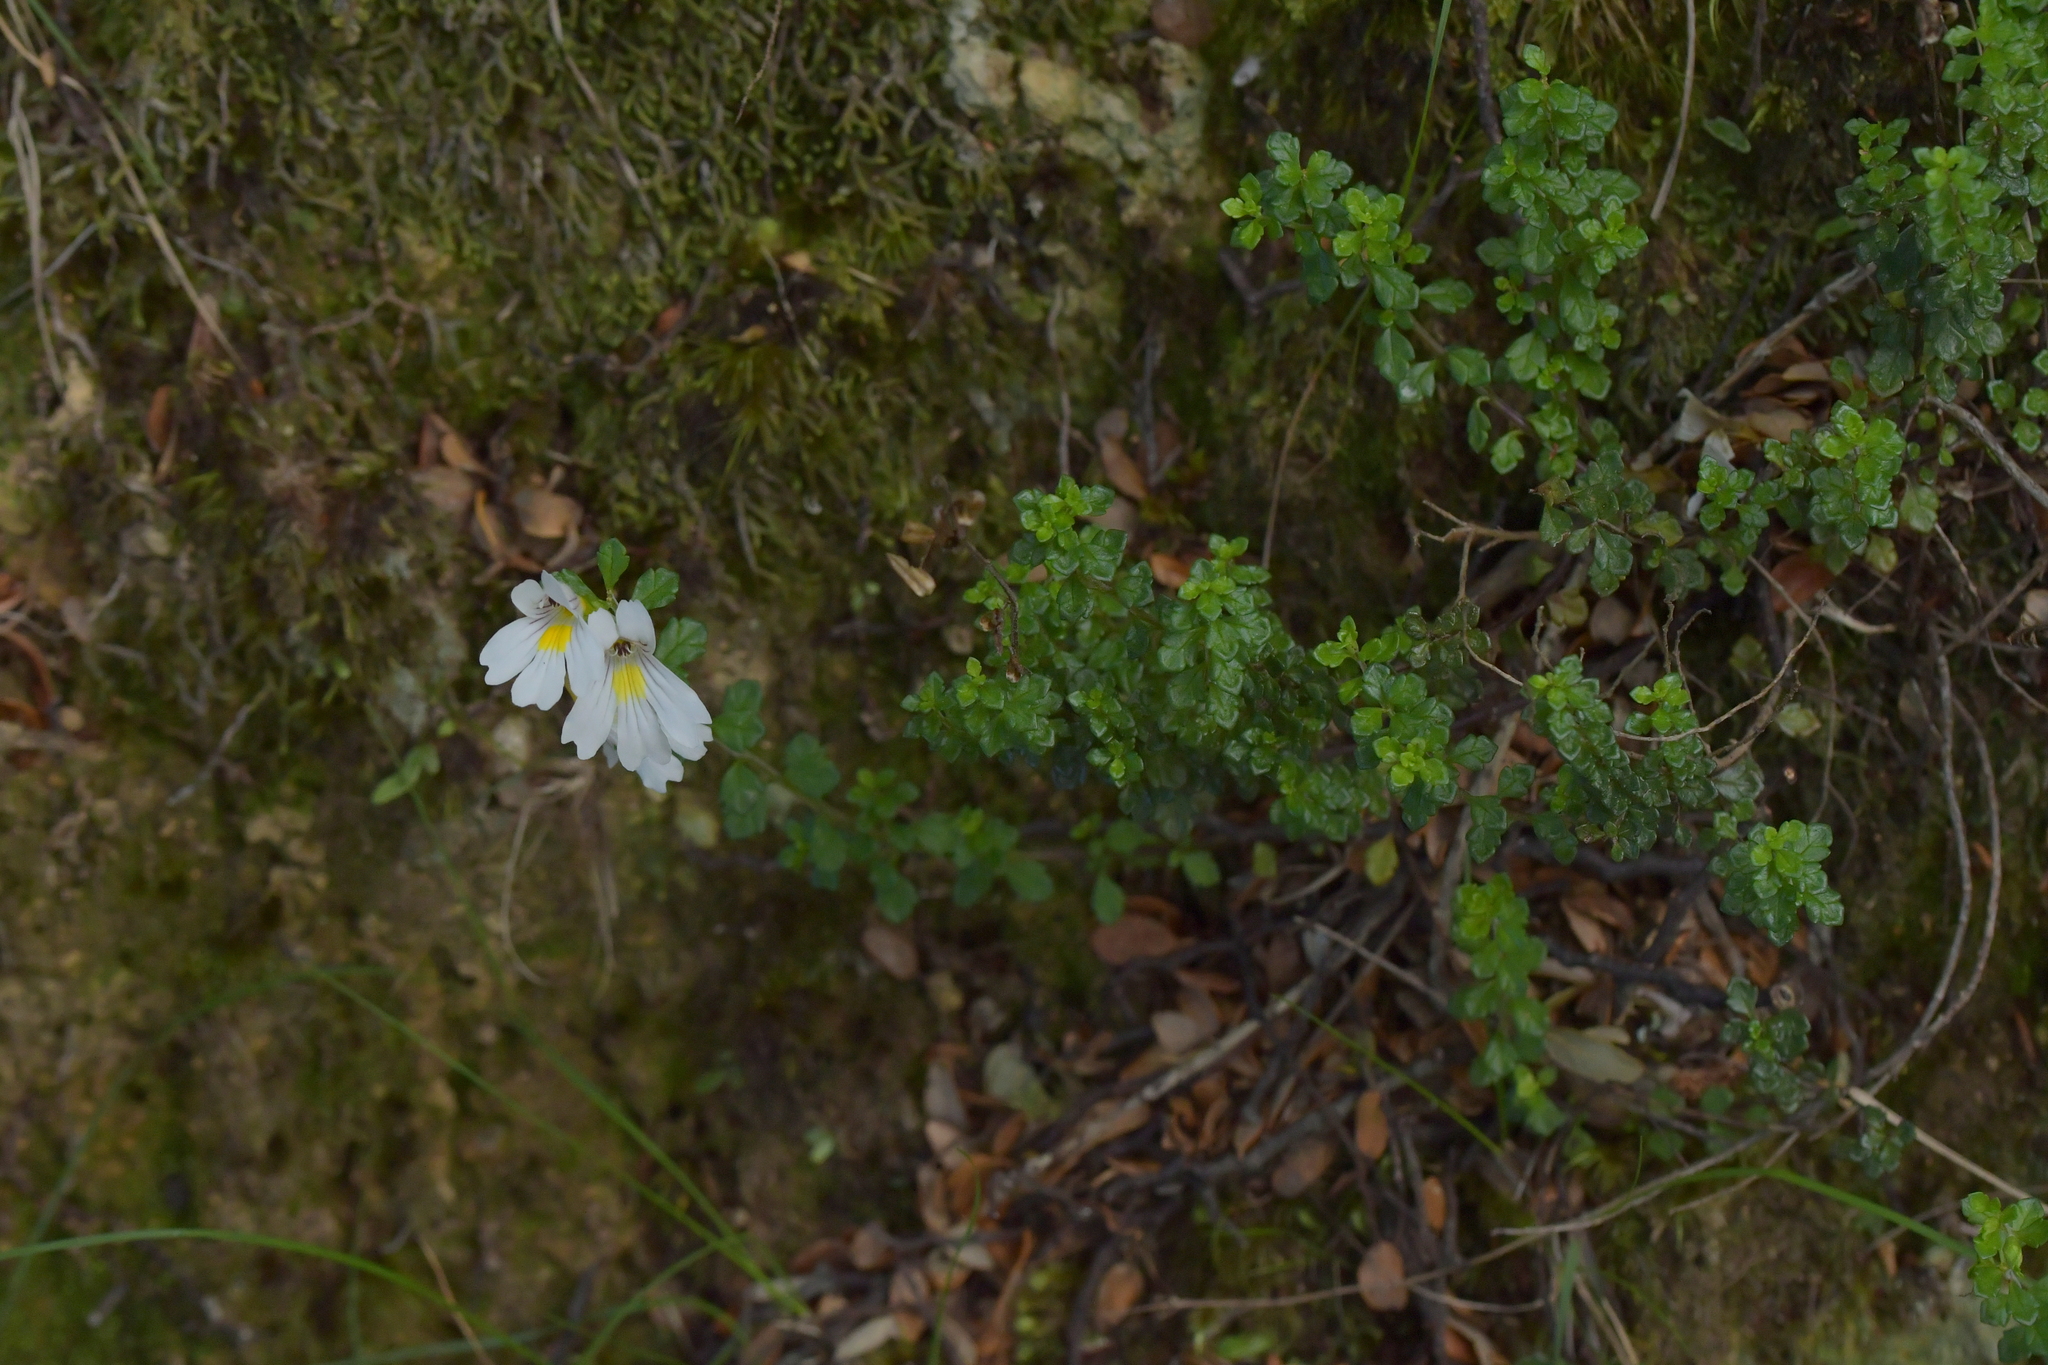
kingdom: Plantae
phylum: Tracheophyta
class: Magnoliopsida
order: Lamiales
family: Orobanchaceae
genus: Euphrasia
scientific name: Euphrasia cuneata
